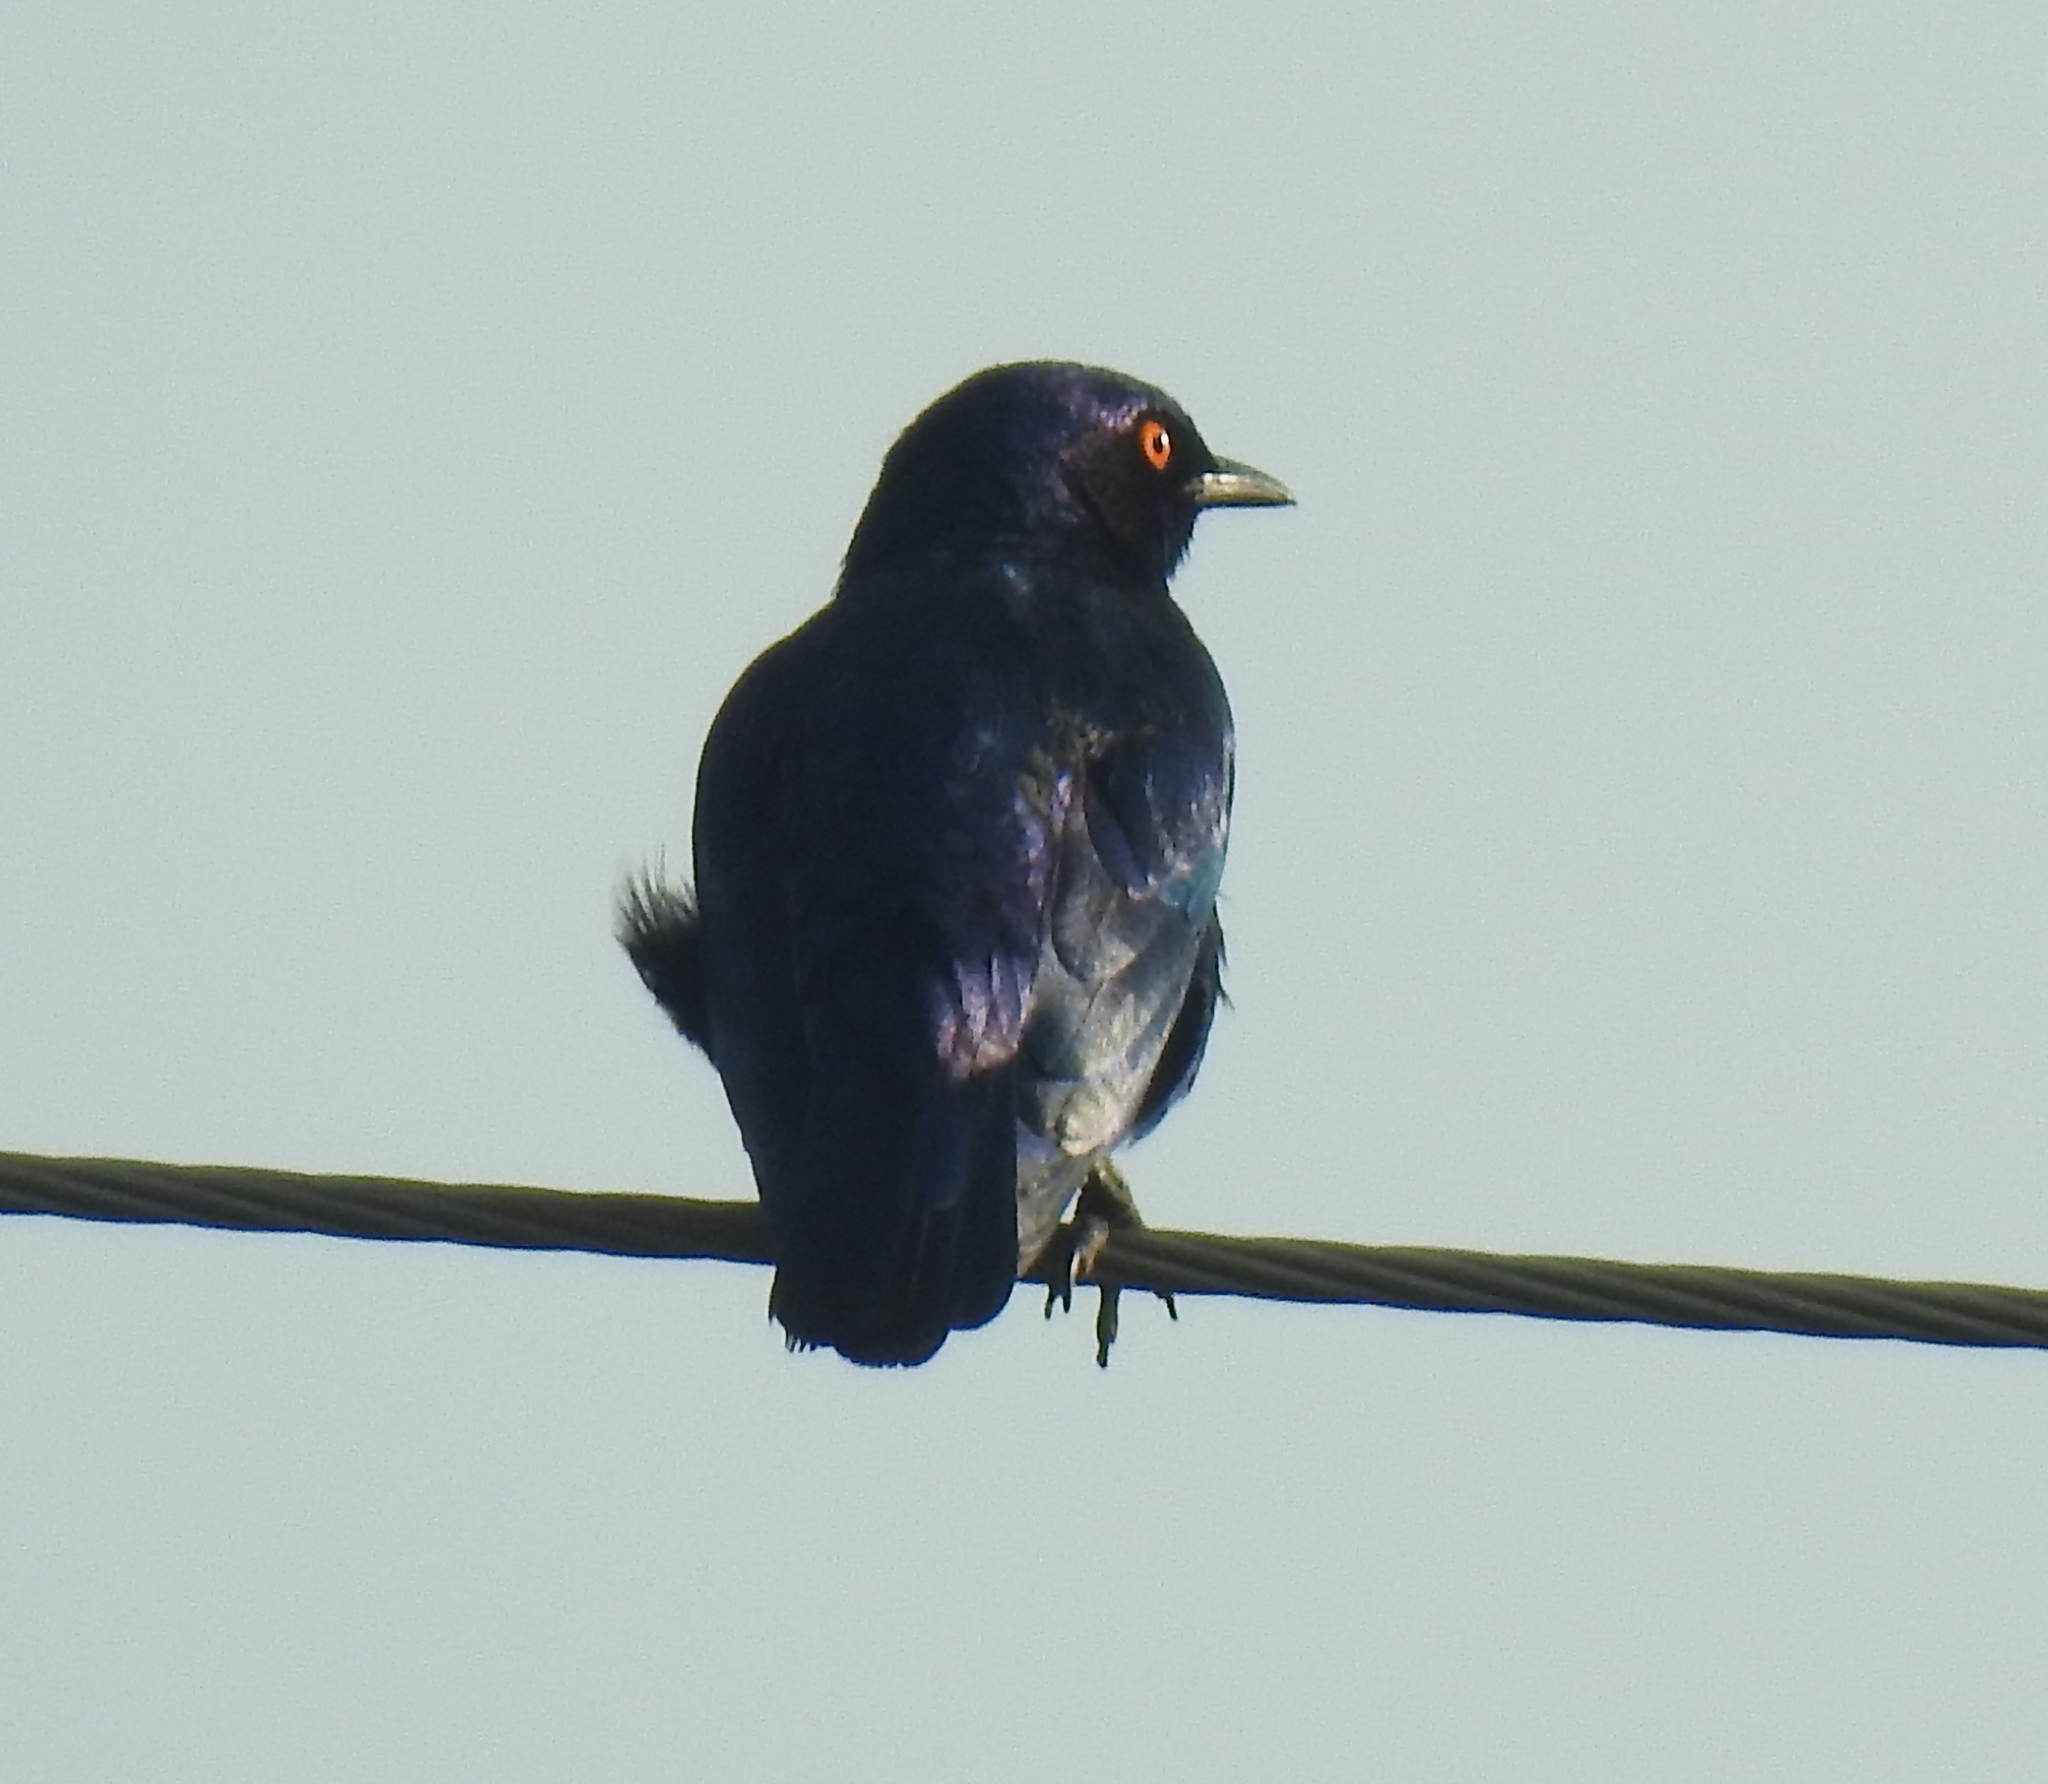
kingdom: Animalia
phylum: Chordata
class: Aves
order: Passeriformes
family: Sturnidae
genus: Lamprotornis
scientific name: Lamprotornis nitens
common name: Cape starling
